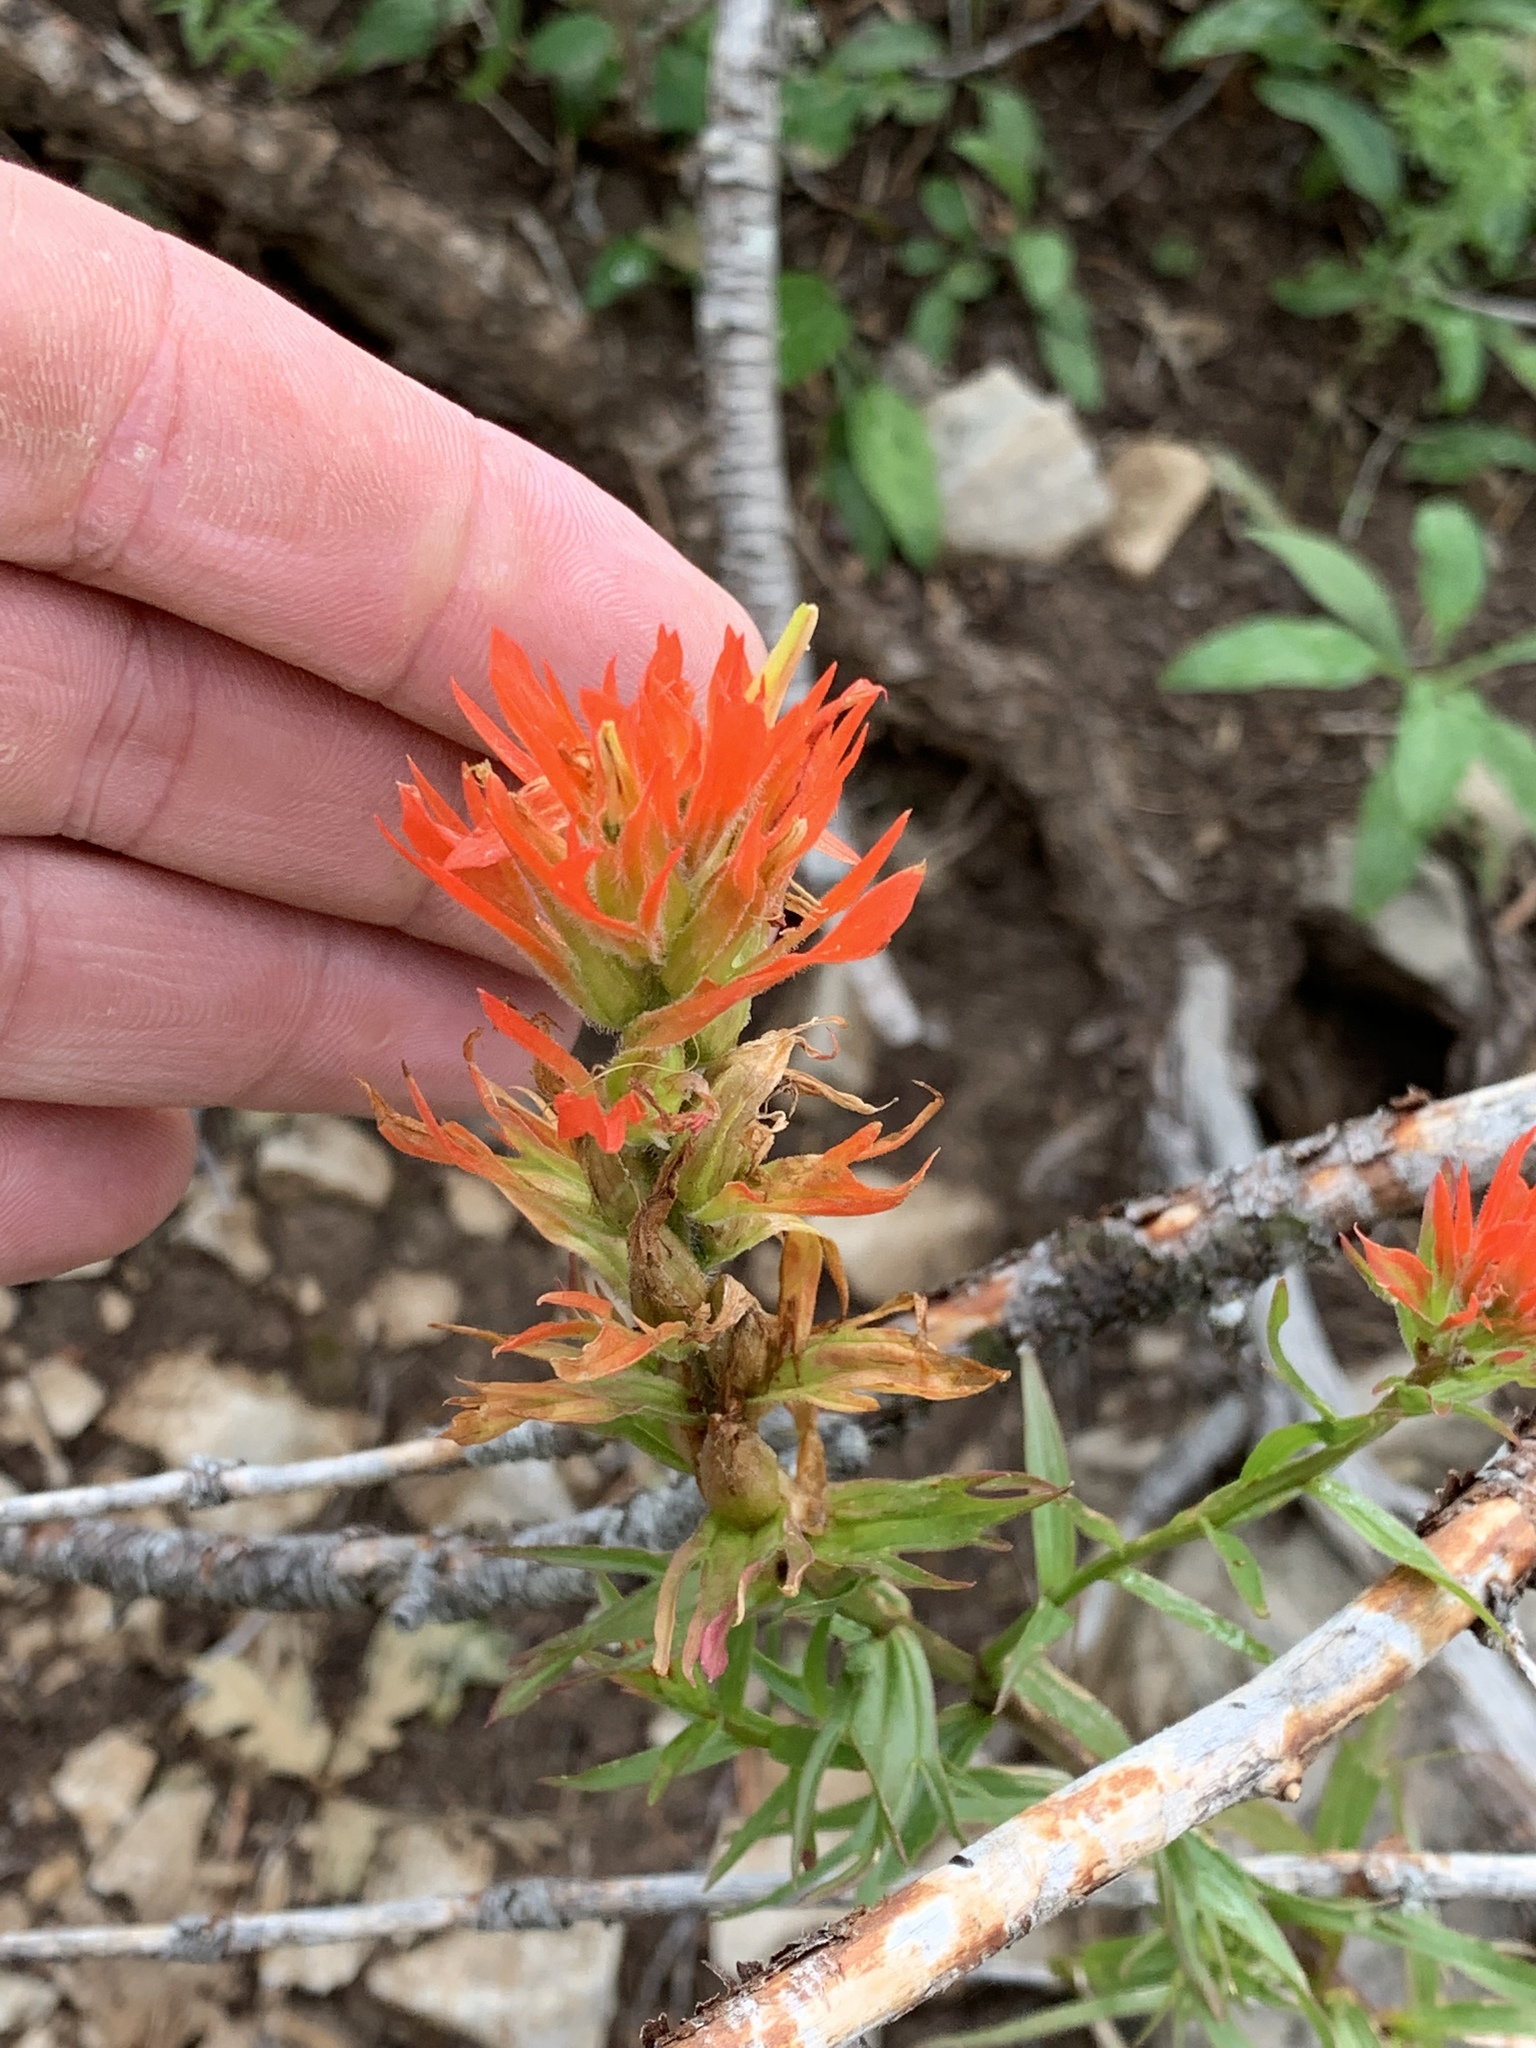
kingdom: Plantae
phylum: Tracheophyta
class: Magnoliopsida
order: Lamiales
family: Orobanchaceae
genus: Castilleja
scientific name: Castilleja wootonii
